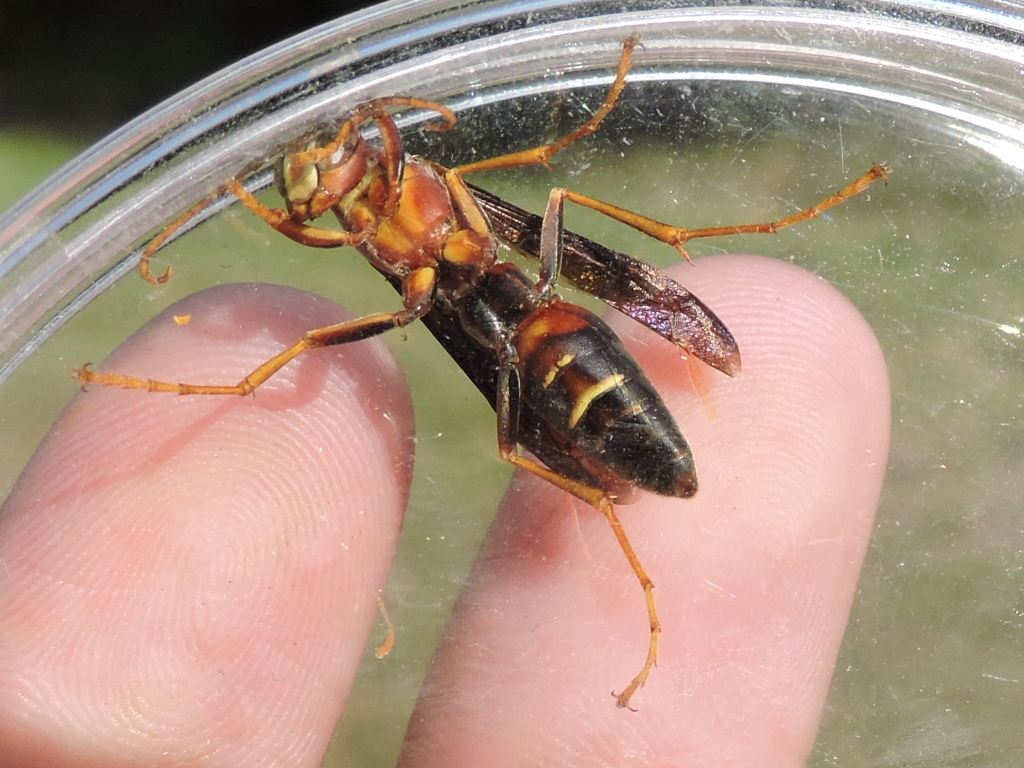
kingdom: Animalia
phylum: Arthropoda
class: Insecta
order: Hymenoptera
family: Eumenidae
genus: Polistes
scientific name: Polistes metricus
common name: Metric paper wasp
